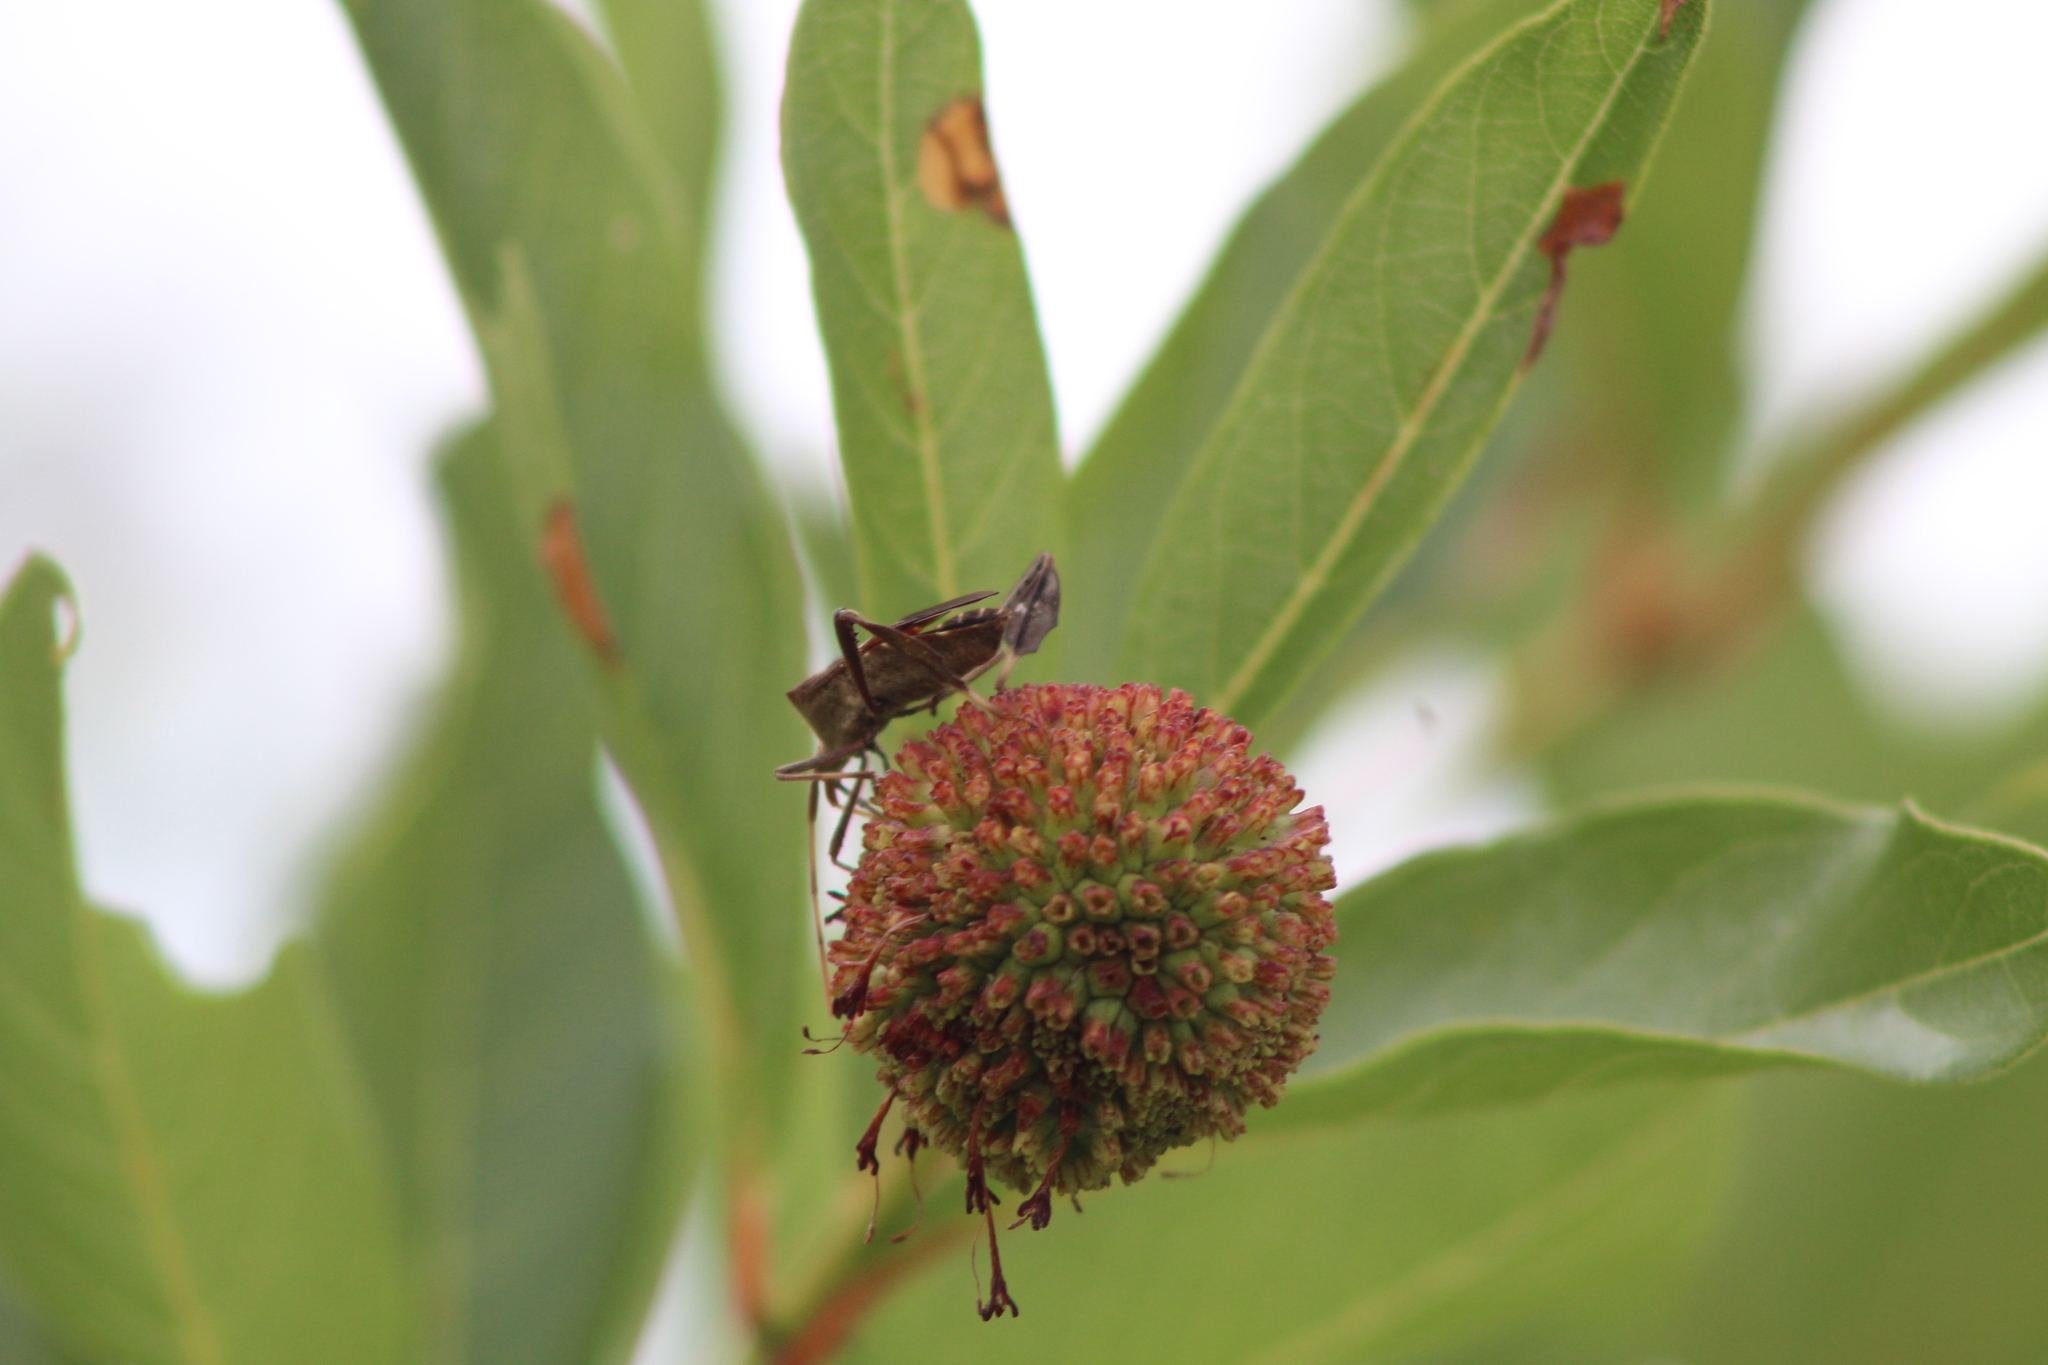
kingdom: Animalia
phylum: Arthropoda
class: Insecta
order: Hemiptera
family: Coreidae
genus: Leptoglossus
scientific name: Leptoglossus phyllopus
